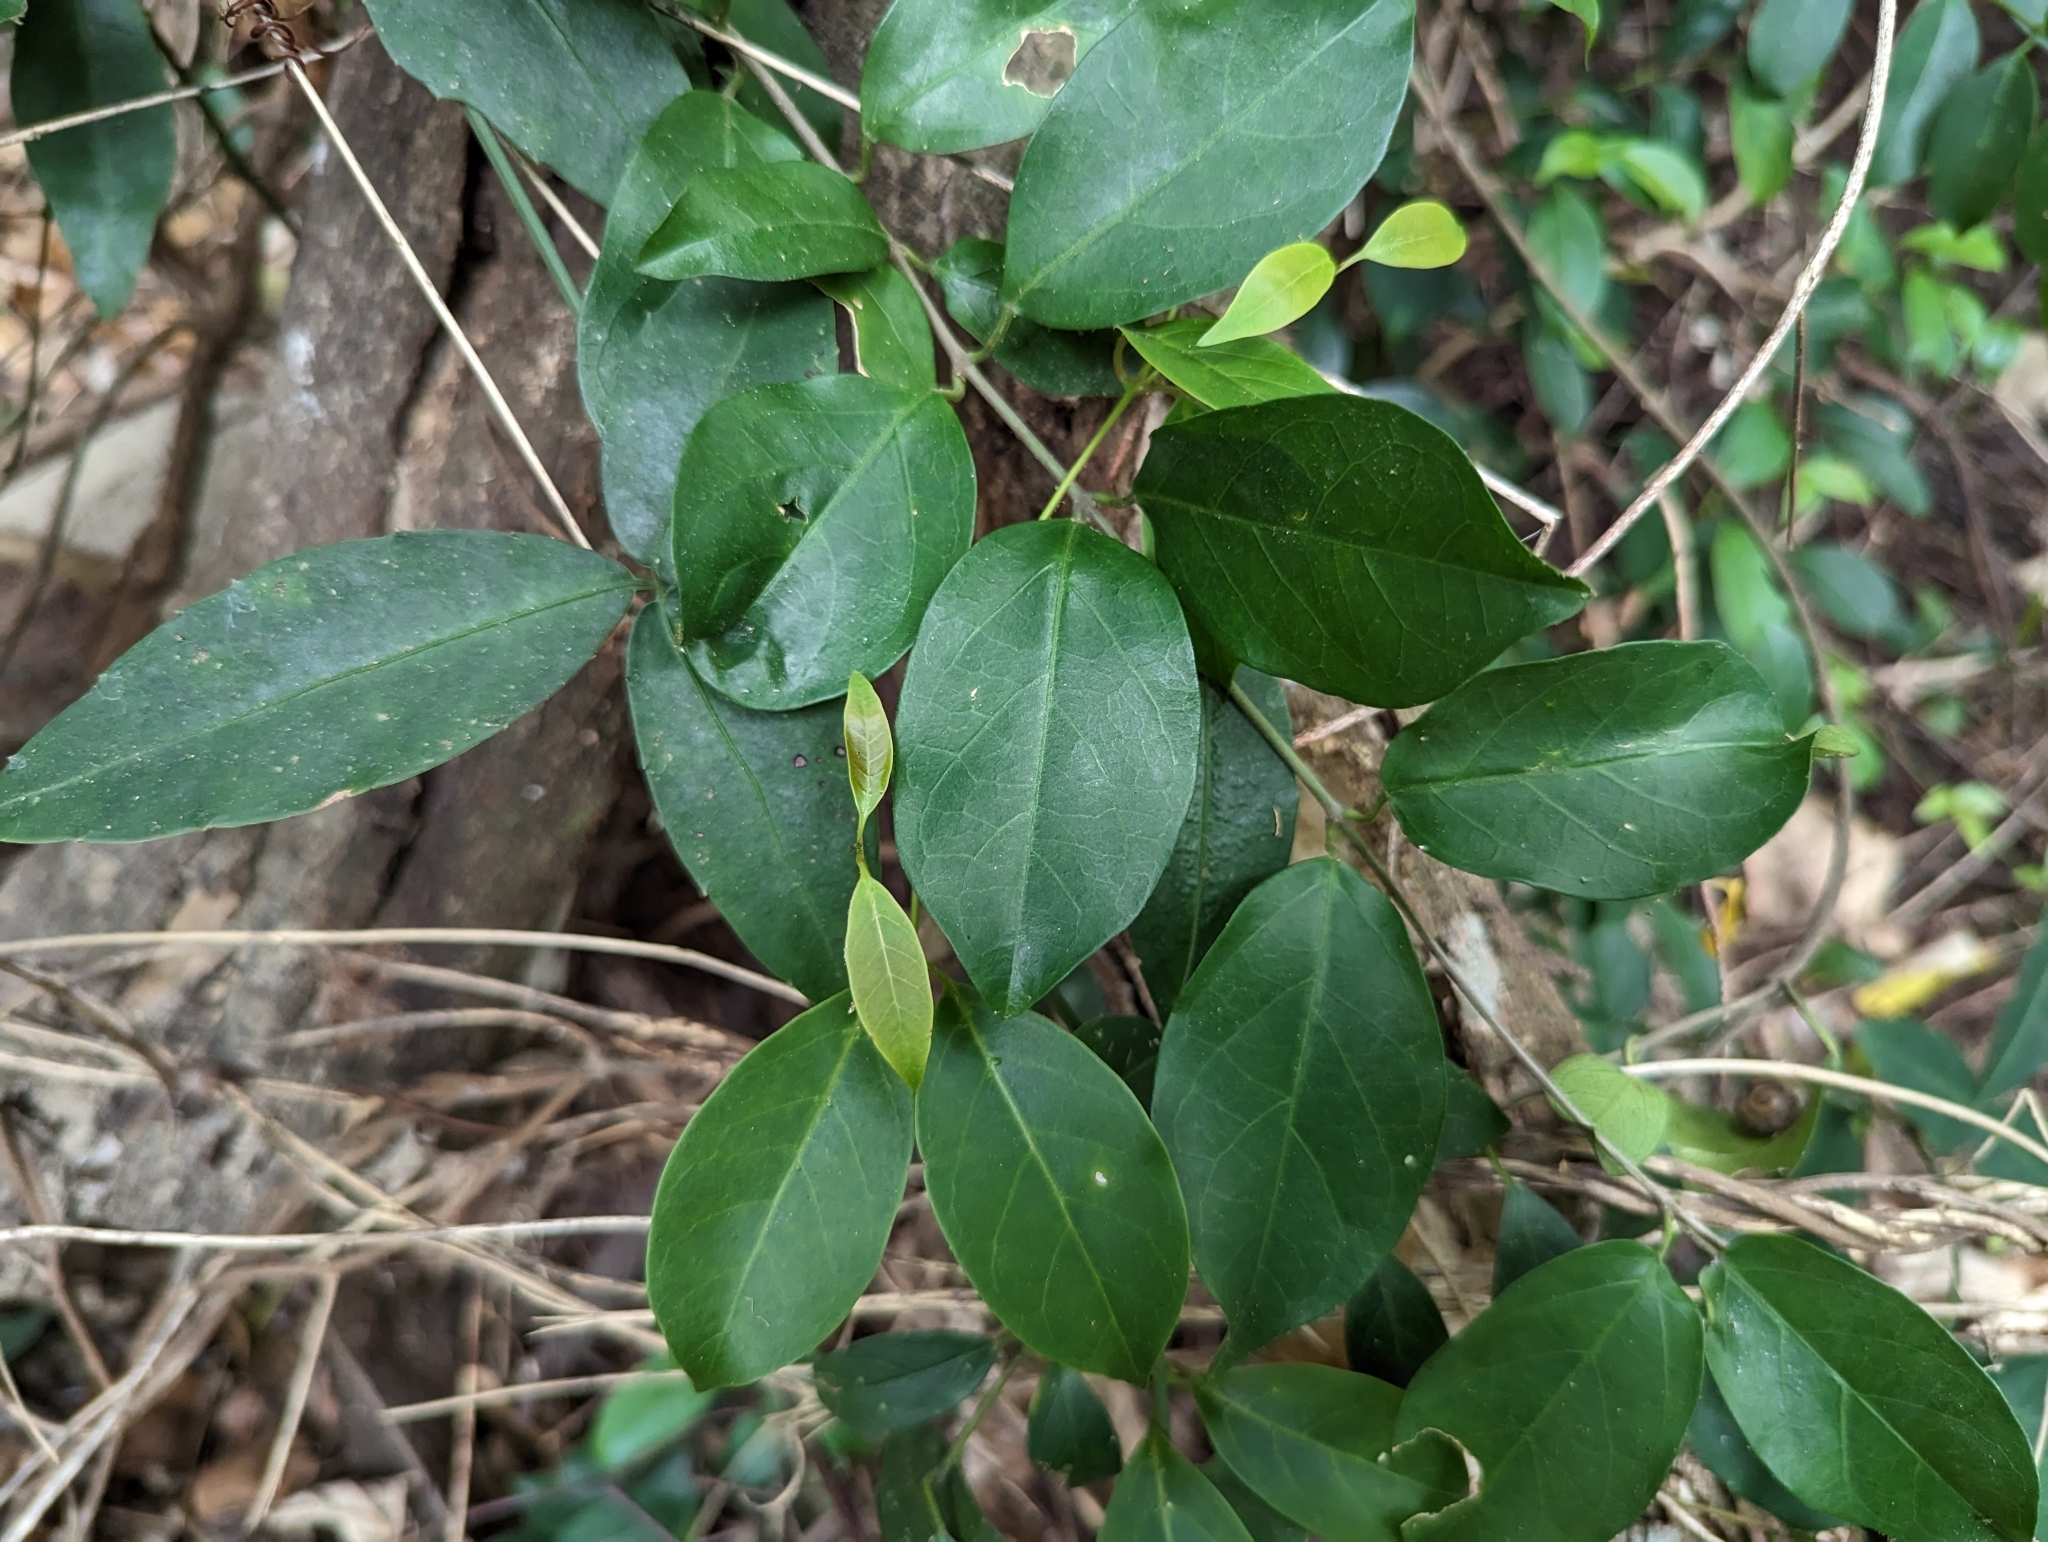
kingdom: Plantae
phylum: Tracheophyta
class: Magnoliopsida
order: Gentianales
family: Apocynaceae
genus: Urceola
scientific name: Urceola rosea
